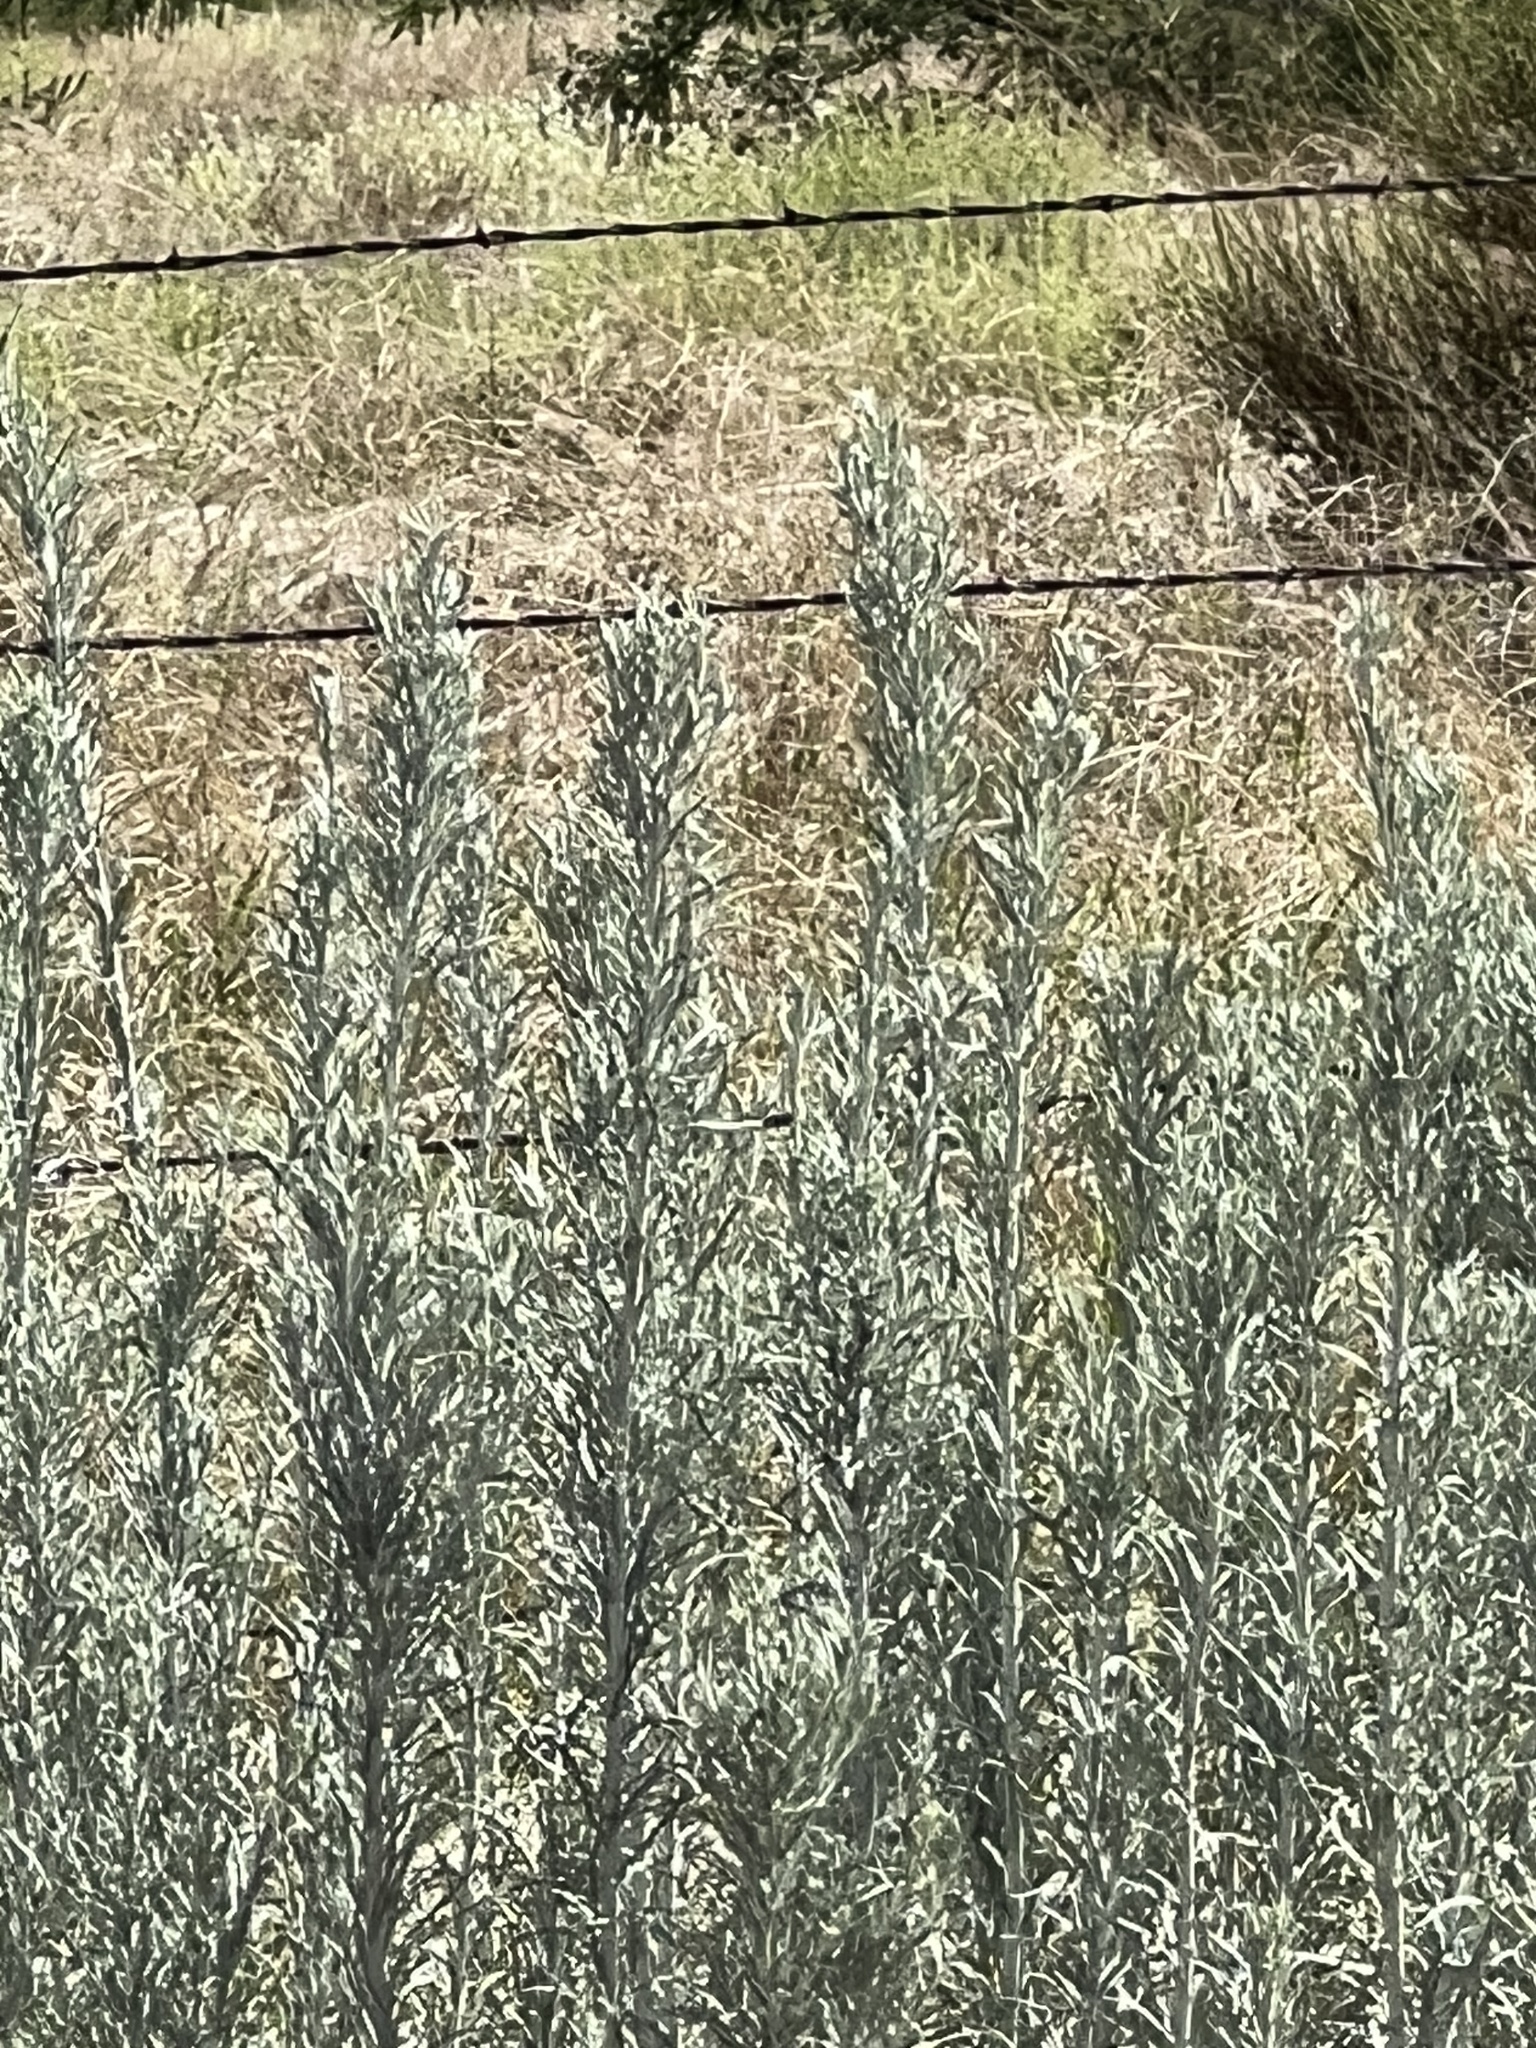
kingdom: Plantae
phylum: Tracheophyta
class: Magnoliopsida
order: Asterales
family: Asteraceae
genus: Artemisia
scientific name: Artemisia ludoviciana
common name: Western mugwort
